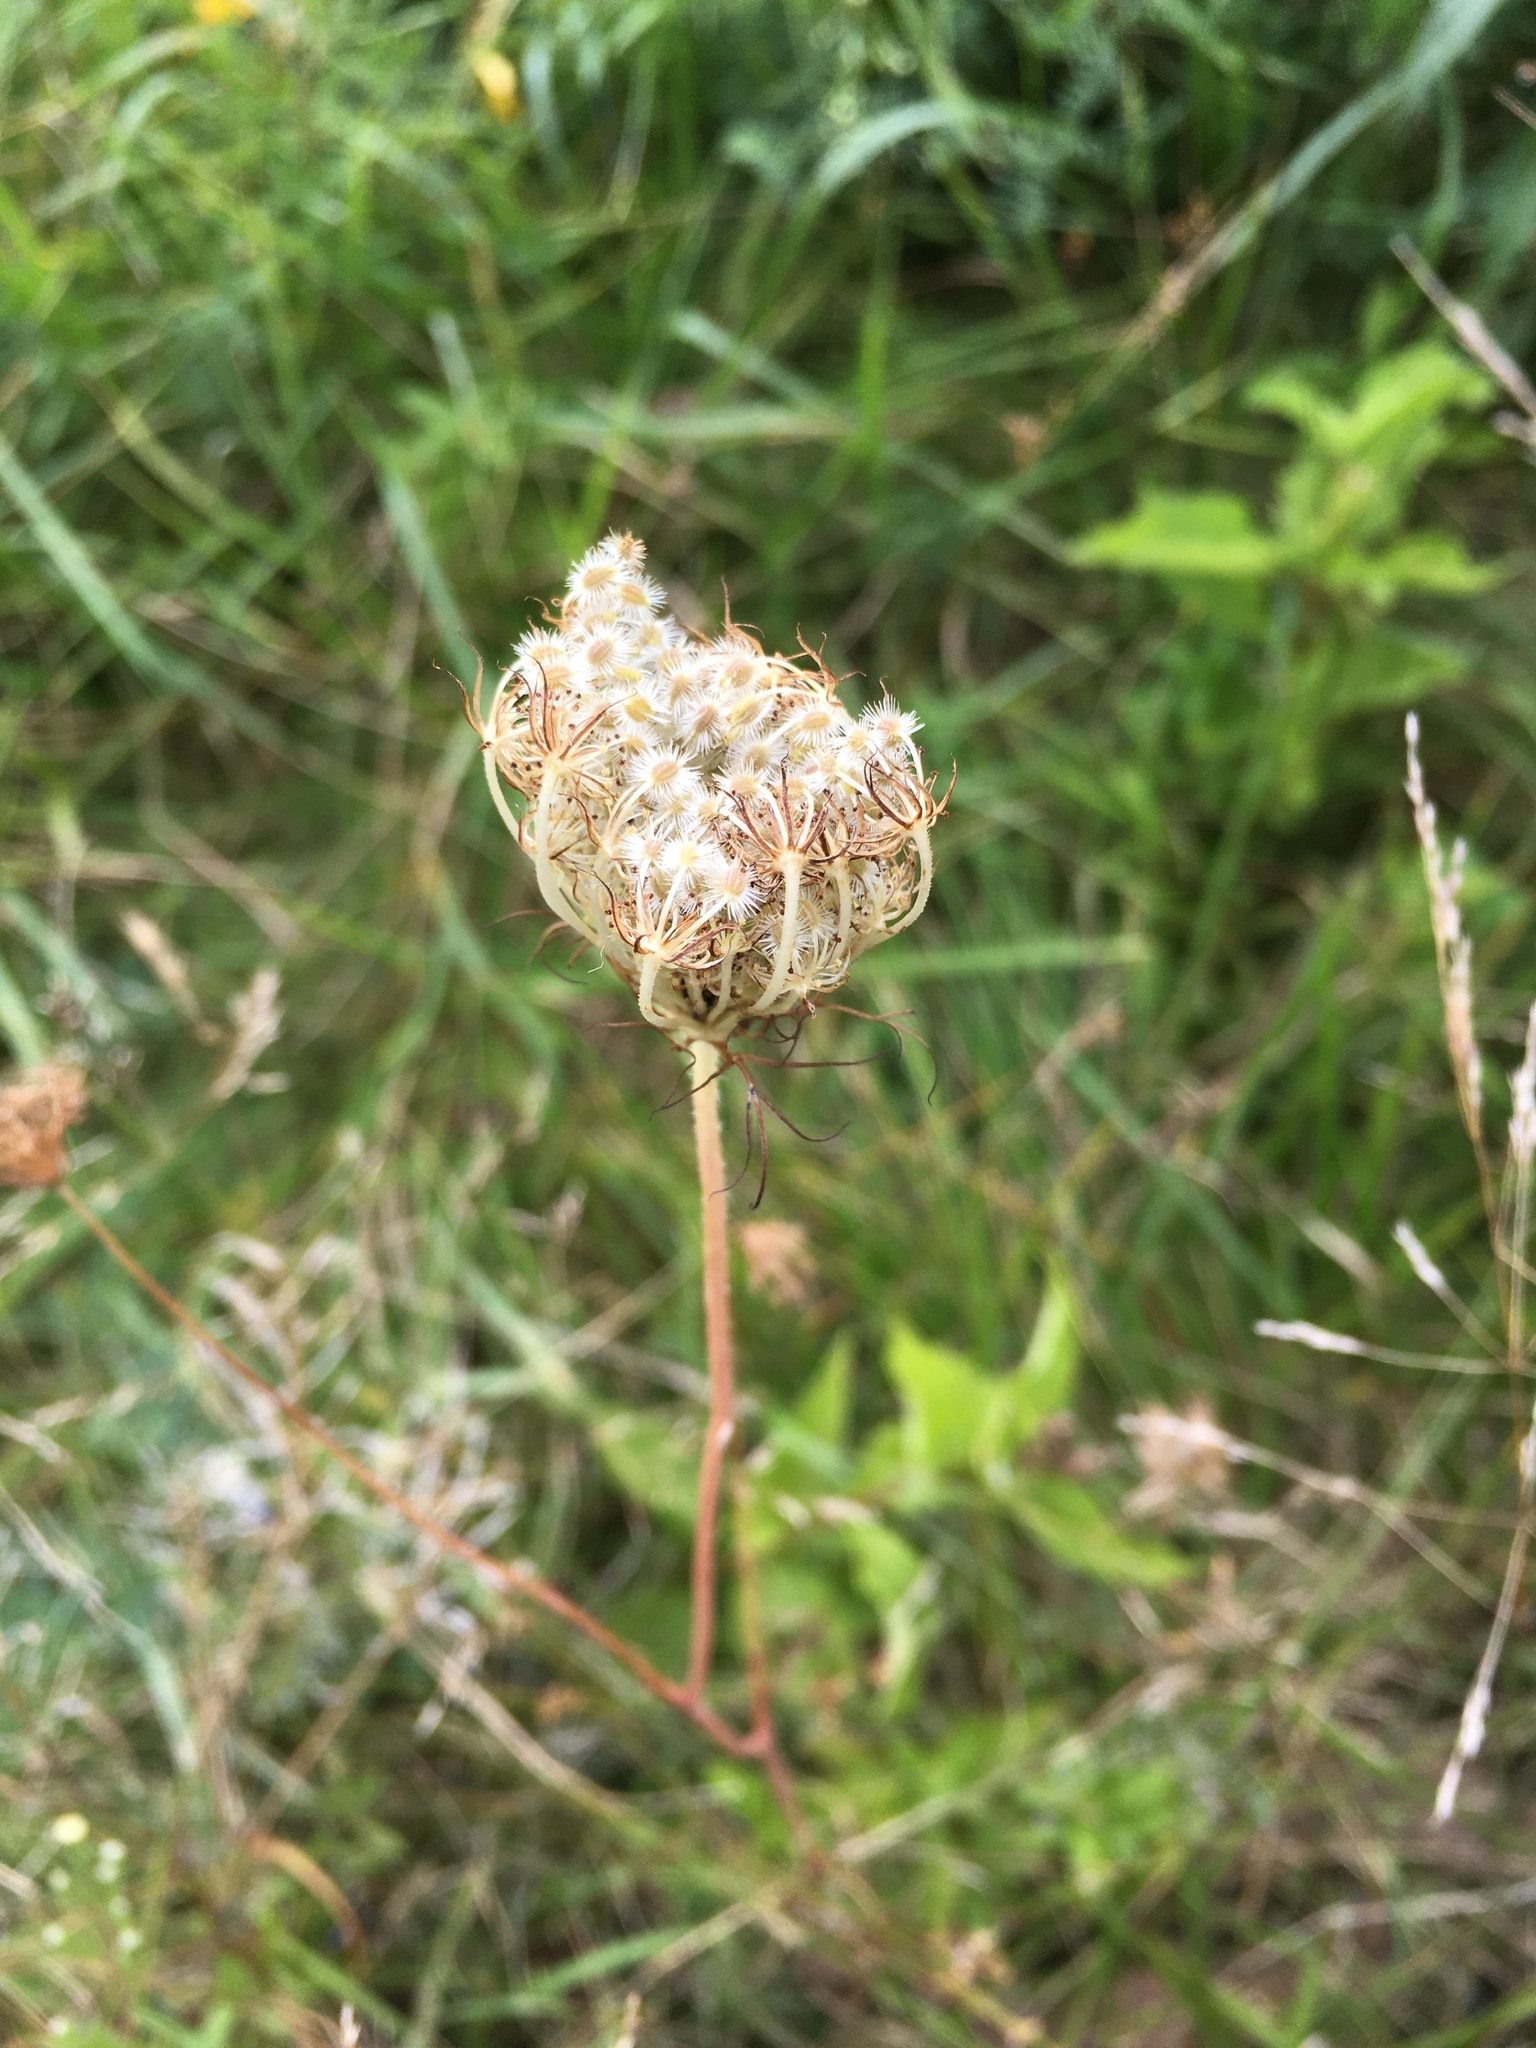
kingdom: Plantae
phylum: Tracheophyta
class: Magnoliopsida
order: Apiales
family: Apiaceae
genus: Daucus
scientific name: Daucus carota
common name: Wild carrot
